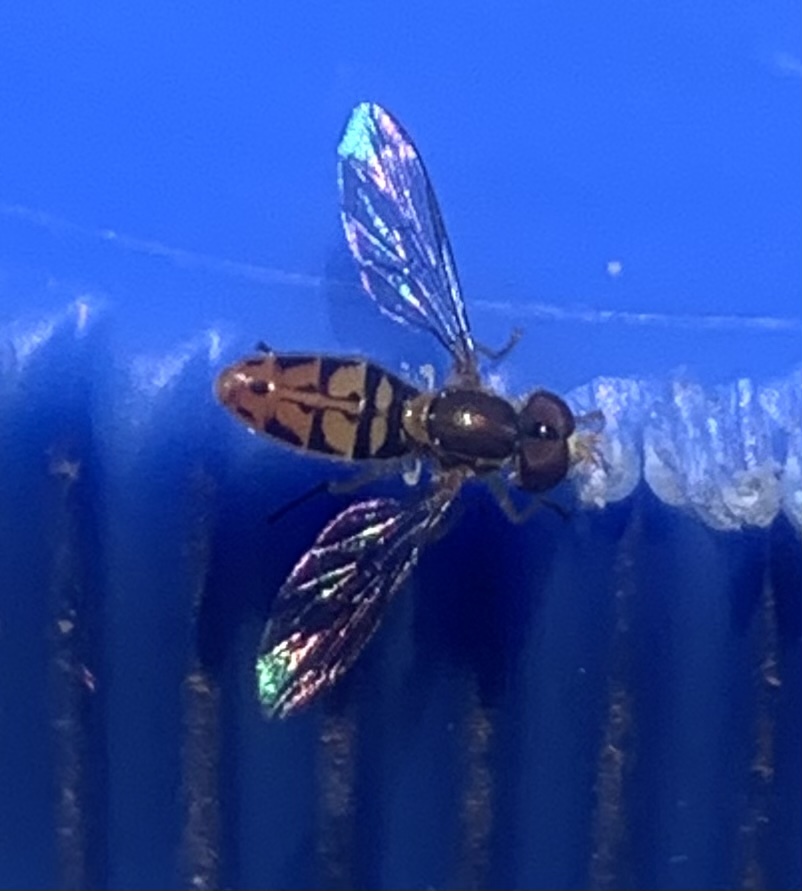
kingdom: Animalia
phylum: Arthropoda
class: Insecta
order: Diptera
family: Syrphidae
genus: Toxomerus
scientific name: Toxomerus marginatus
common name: Syrphid fly
